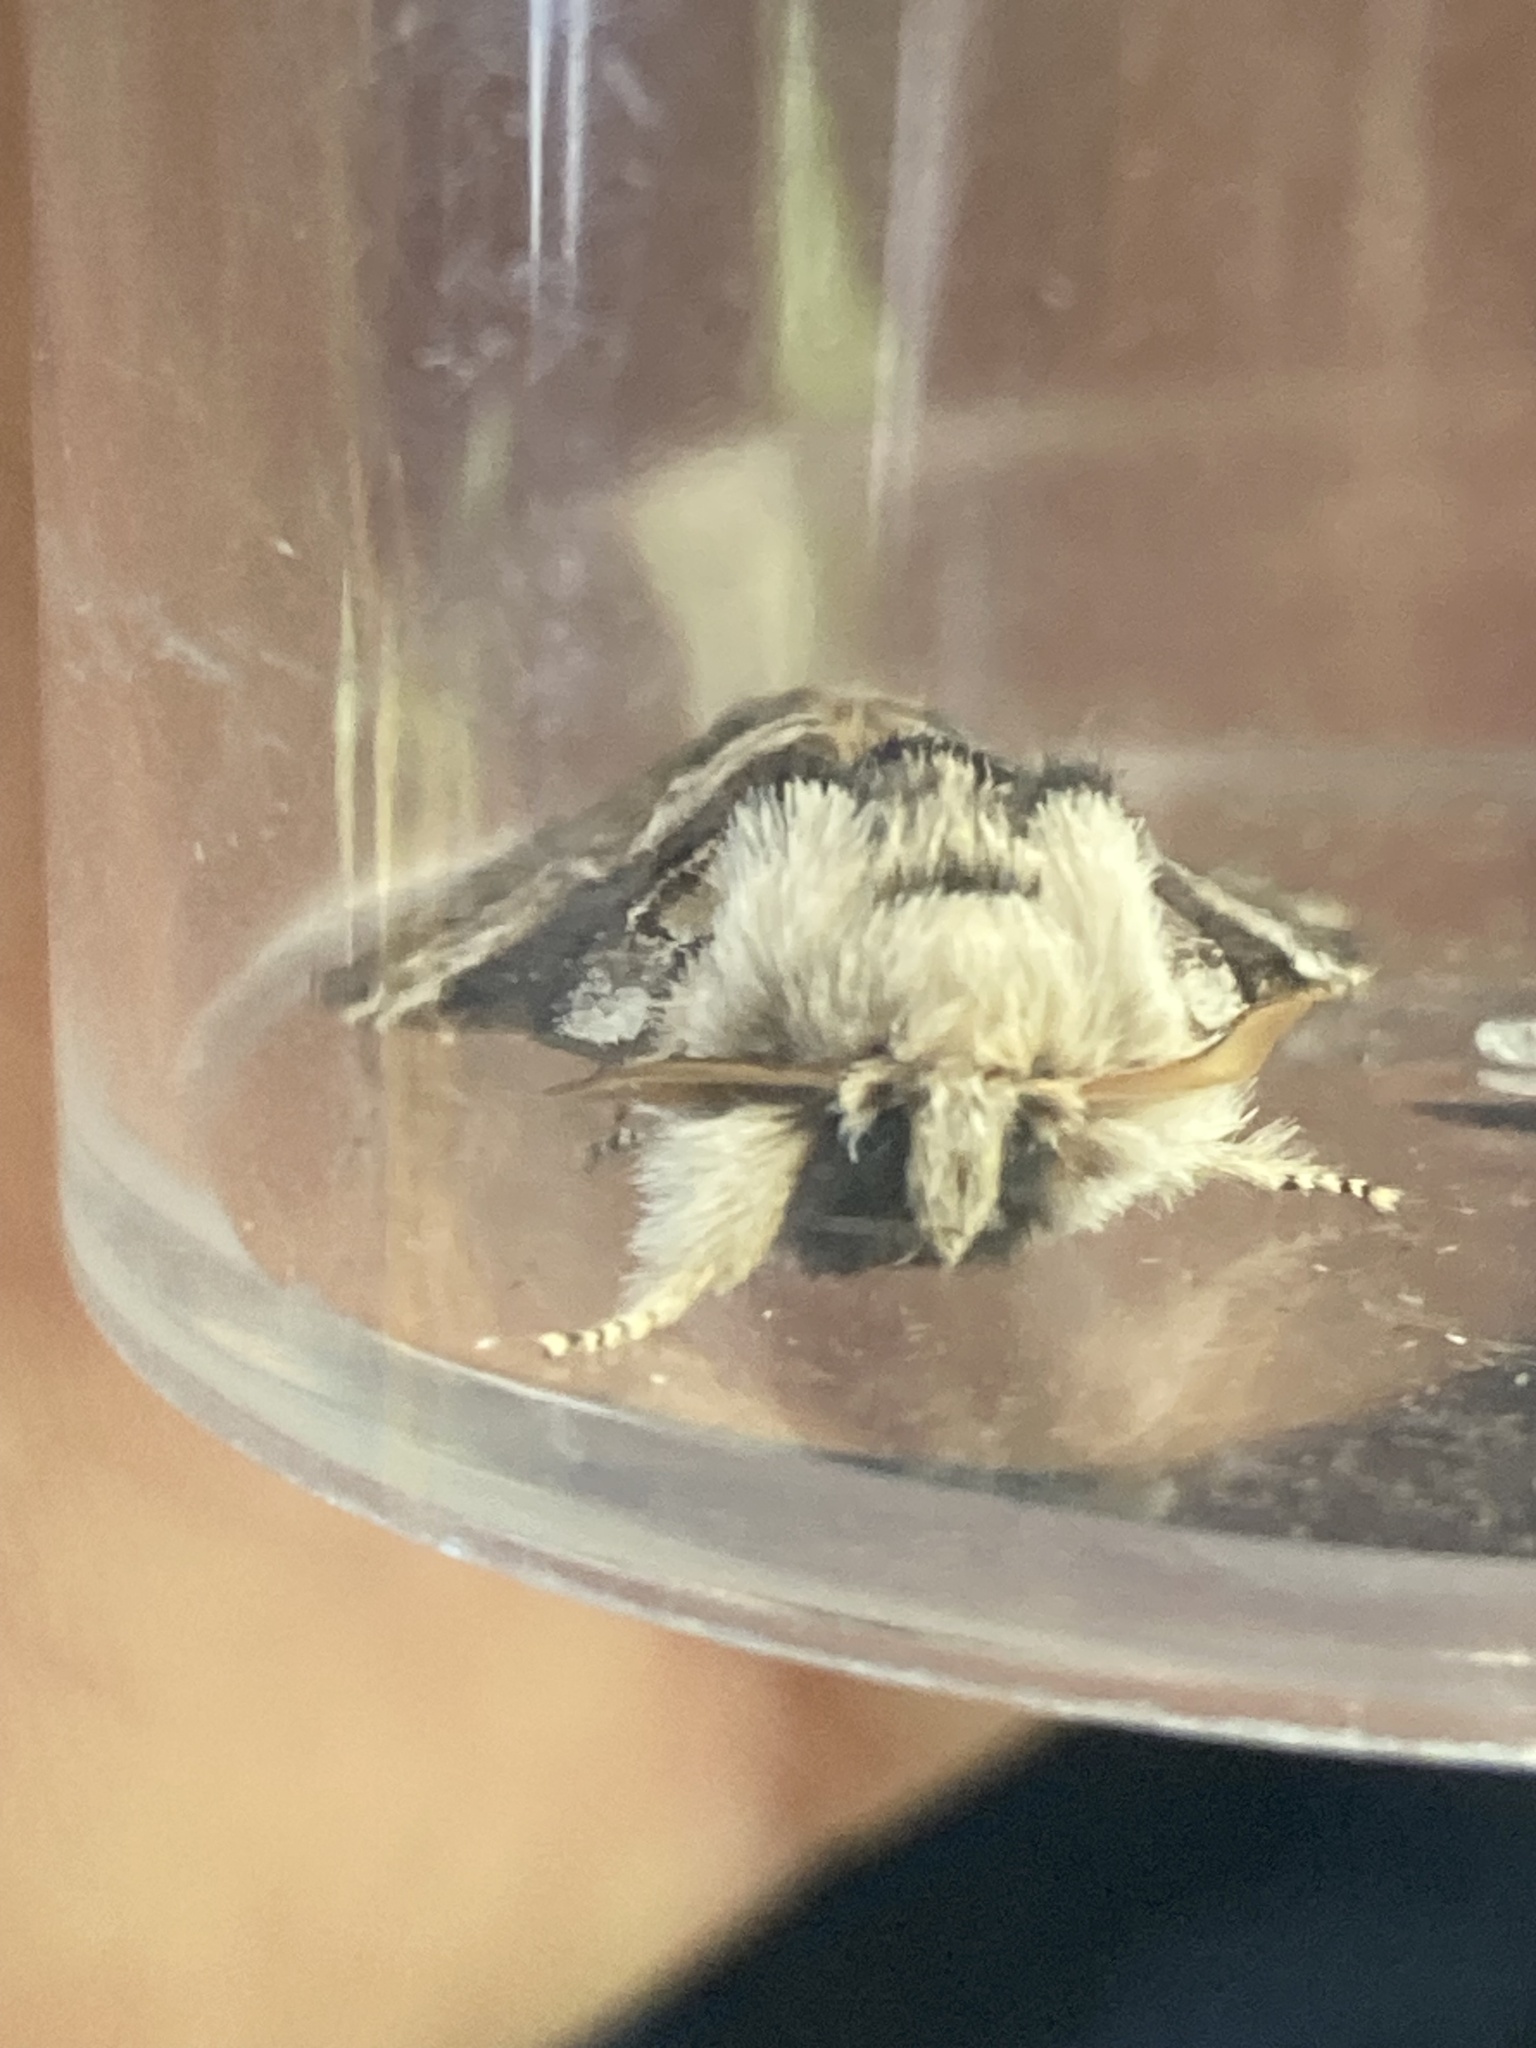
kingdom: Animalia
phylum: Arthropoda
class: Insecta
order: Lepidoptera
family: Notodontidae
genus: Drymonia
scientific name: Drymonia dodonaea
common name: Marbled brown
